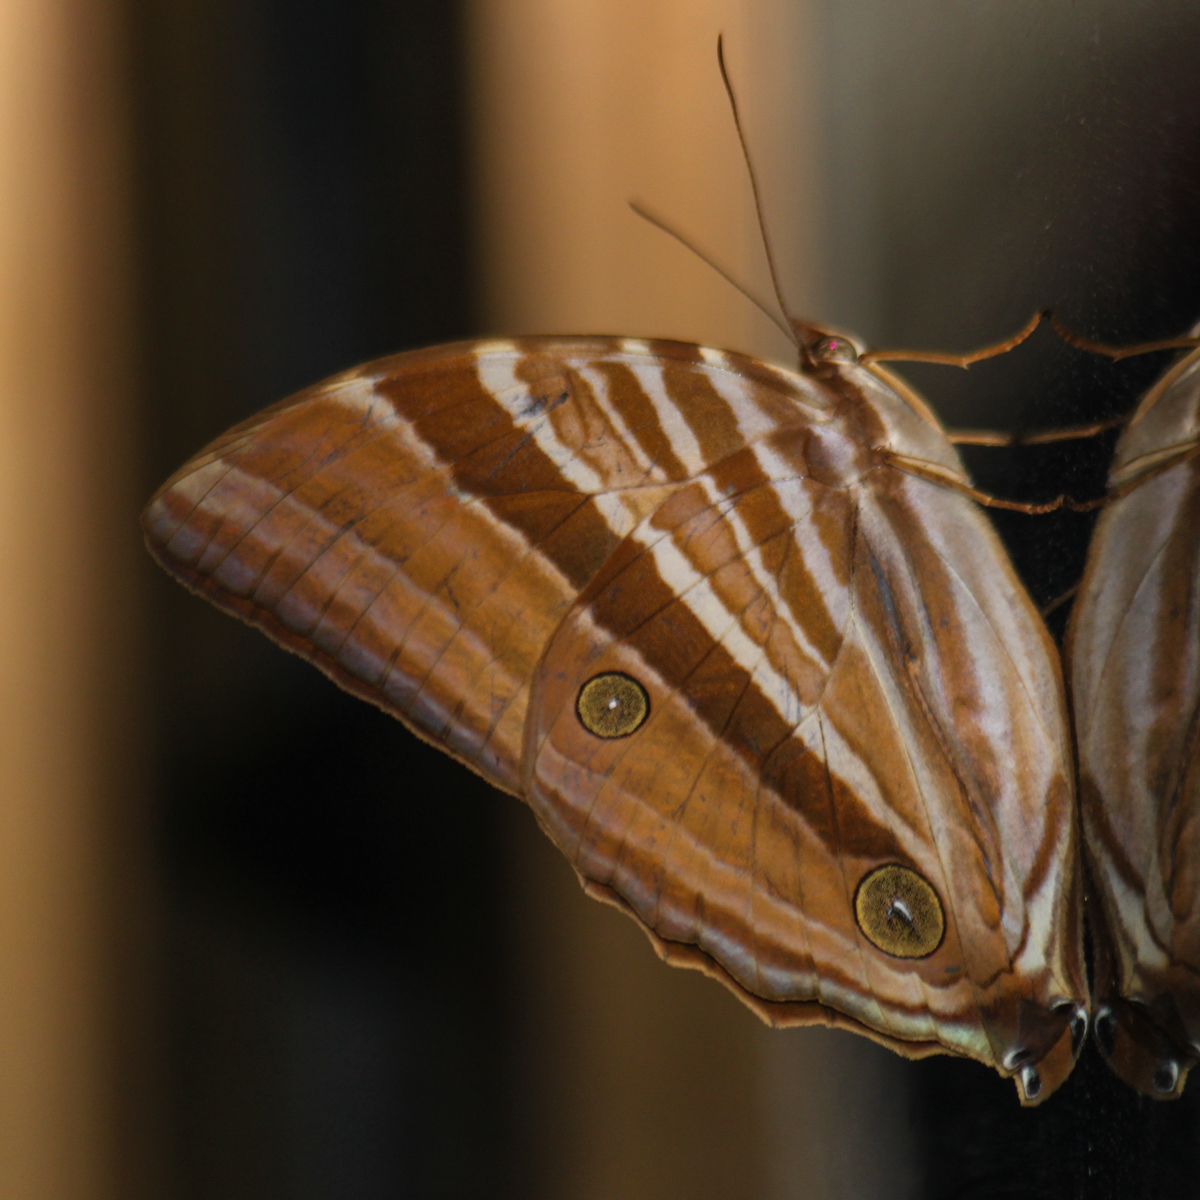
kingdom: Animalia
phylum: Arthropoda
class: Insecta
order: Lepidoptera
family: Nymphalidae
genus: Amathusia
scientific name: Amathusia phidippus
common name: Palm king
